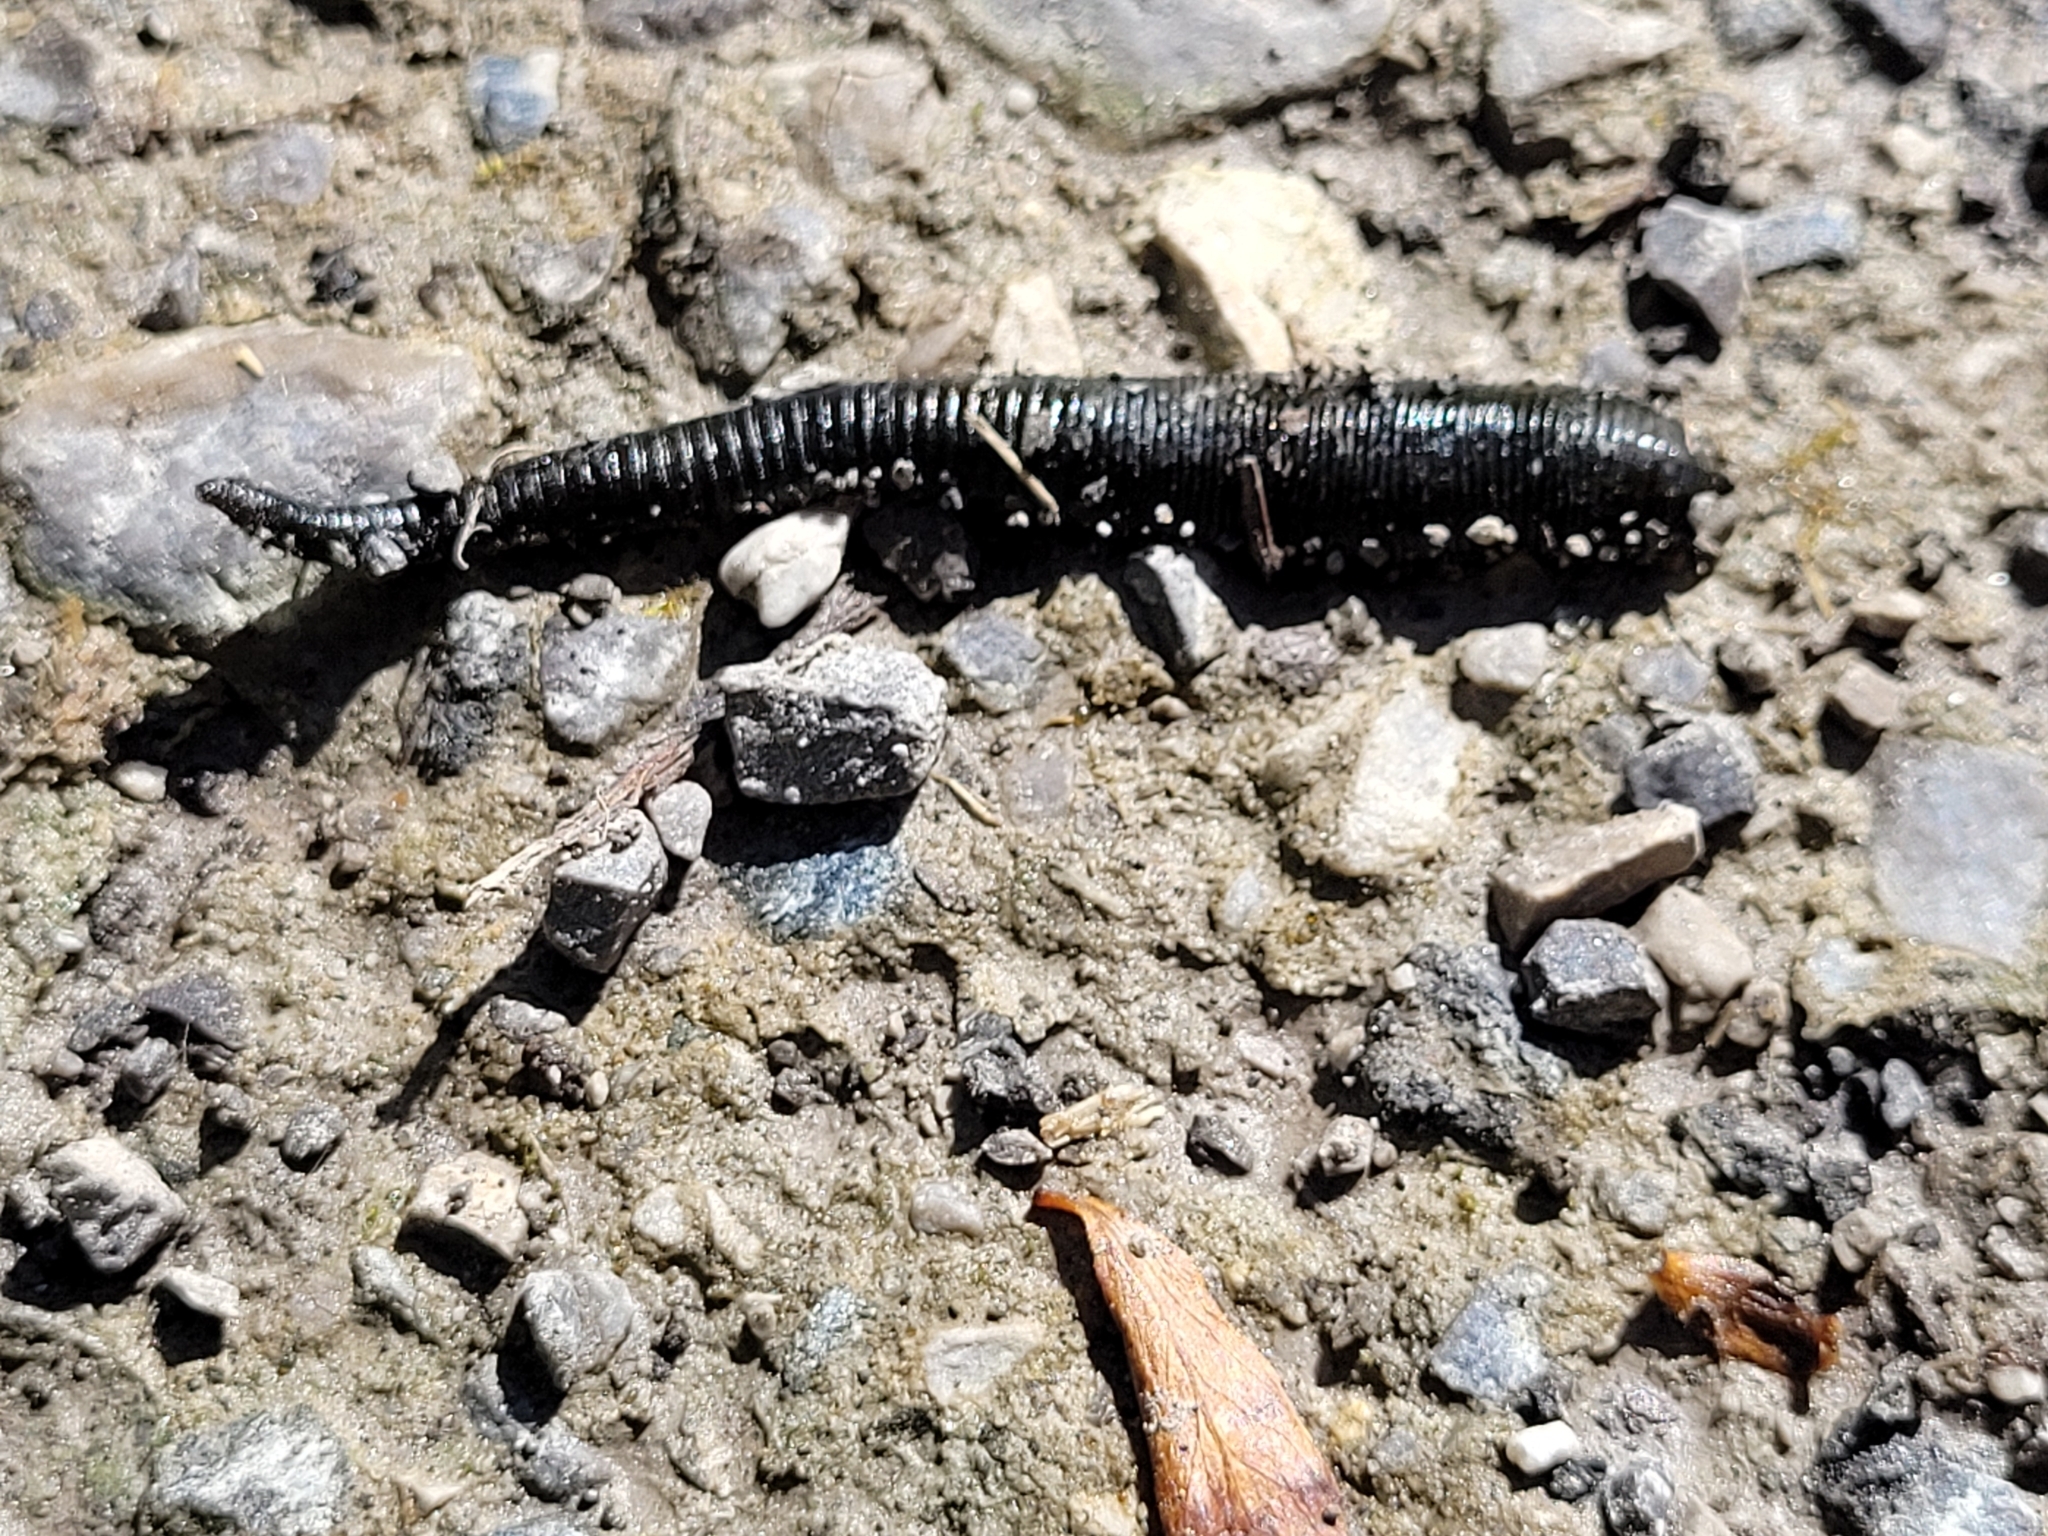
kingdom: Animalia
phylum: Annelida
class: Clitellata
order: Arhynchobdellida
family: Haemopidae
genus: Haemopis
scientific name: Haemopis sanguisuga
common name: Horse leech
